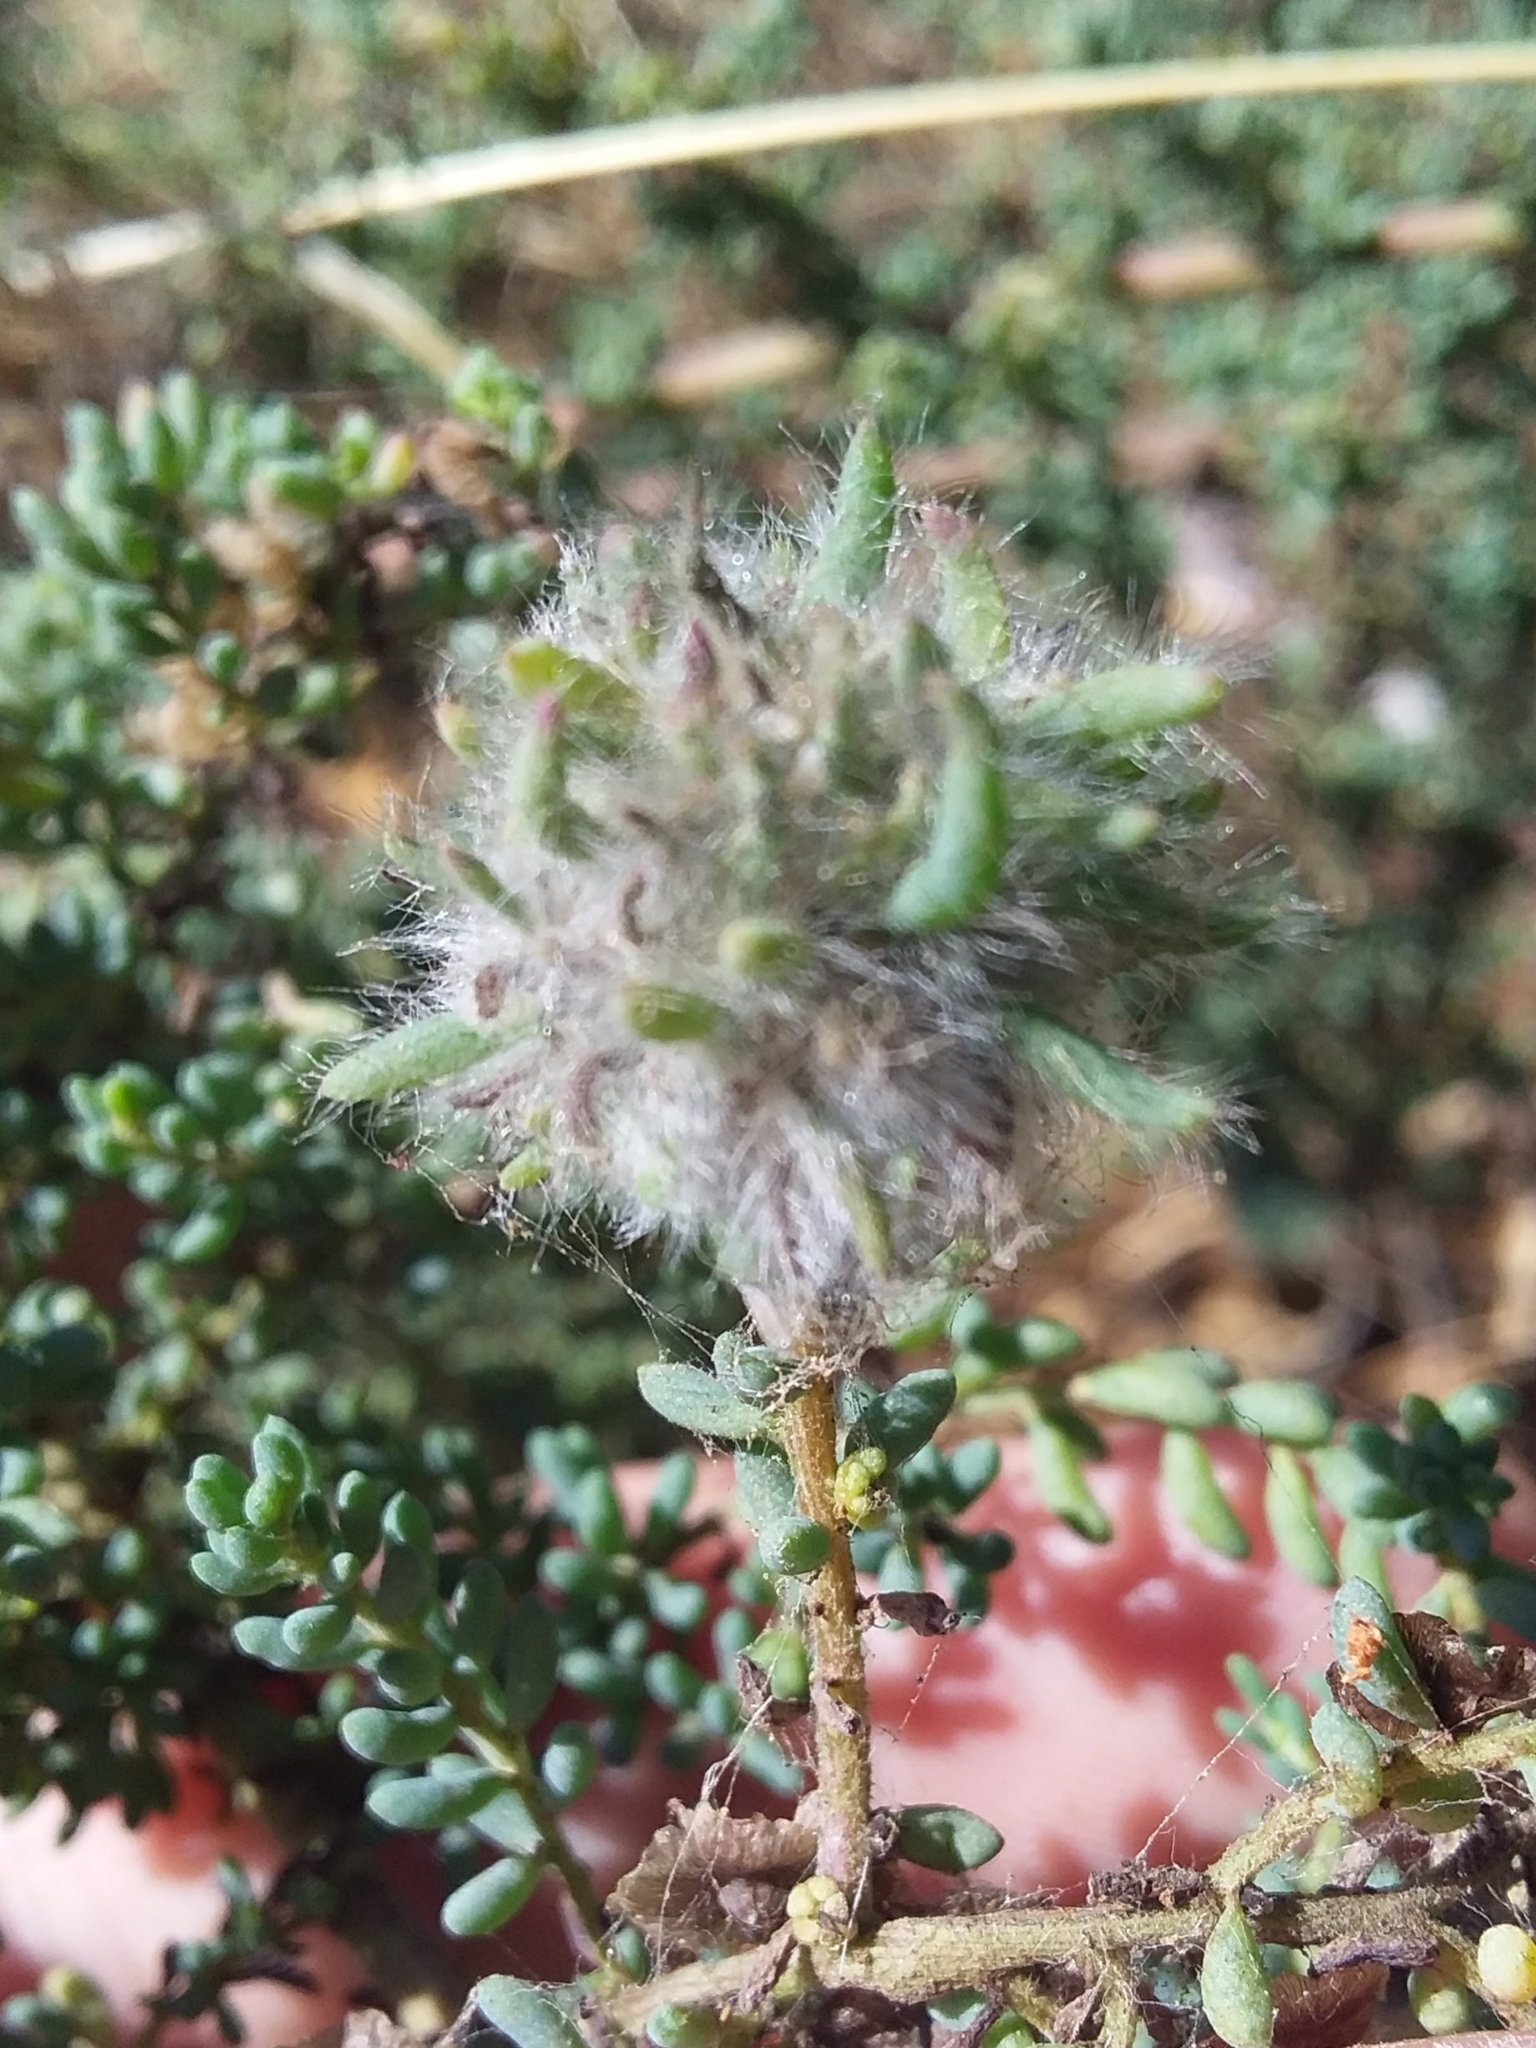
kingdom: Animalia
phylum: Arthropoda
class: Insecta
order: Diptera
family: Cecidomyiidae
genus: Dactylasioptera
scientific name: Dactylasioptera milnae
